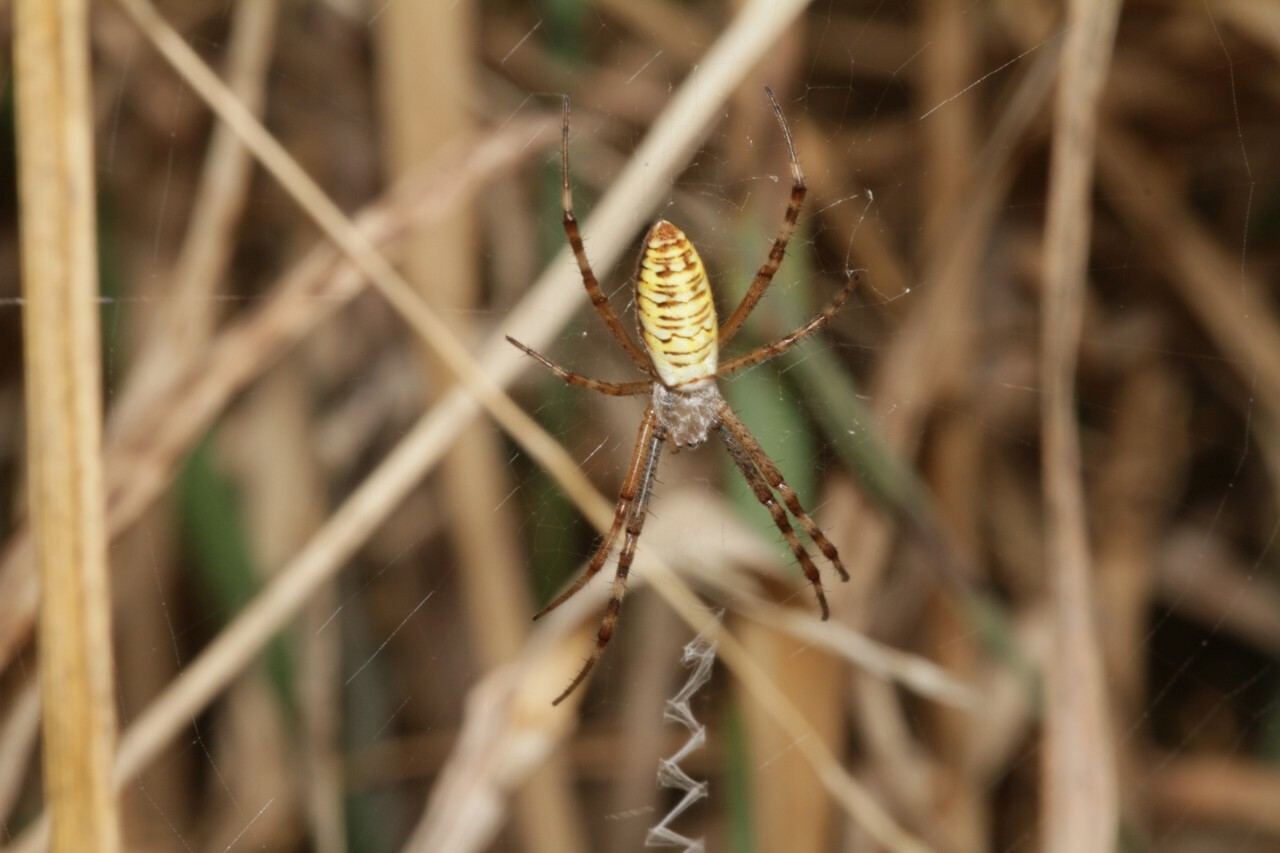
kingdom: Animalia
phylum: Arthropoda
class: Arachnida
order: Araneae
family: Araneidae
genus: Argiope
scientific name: Argiope bruennichi
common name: Wasp spider
